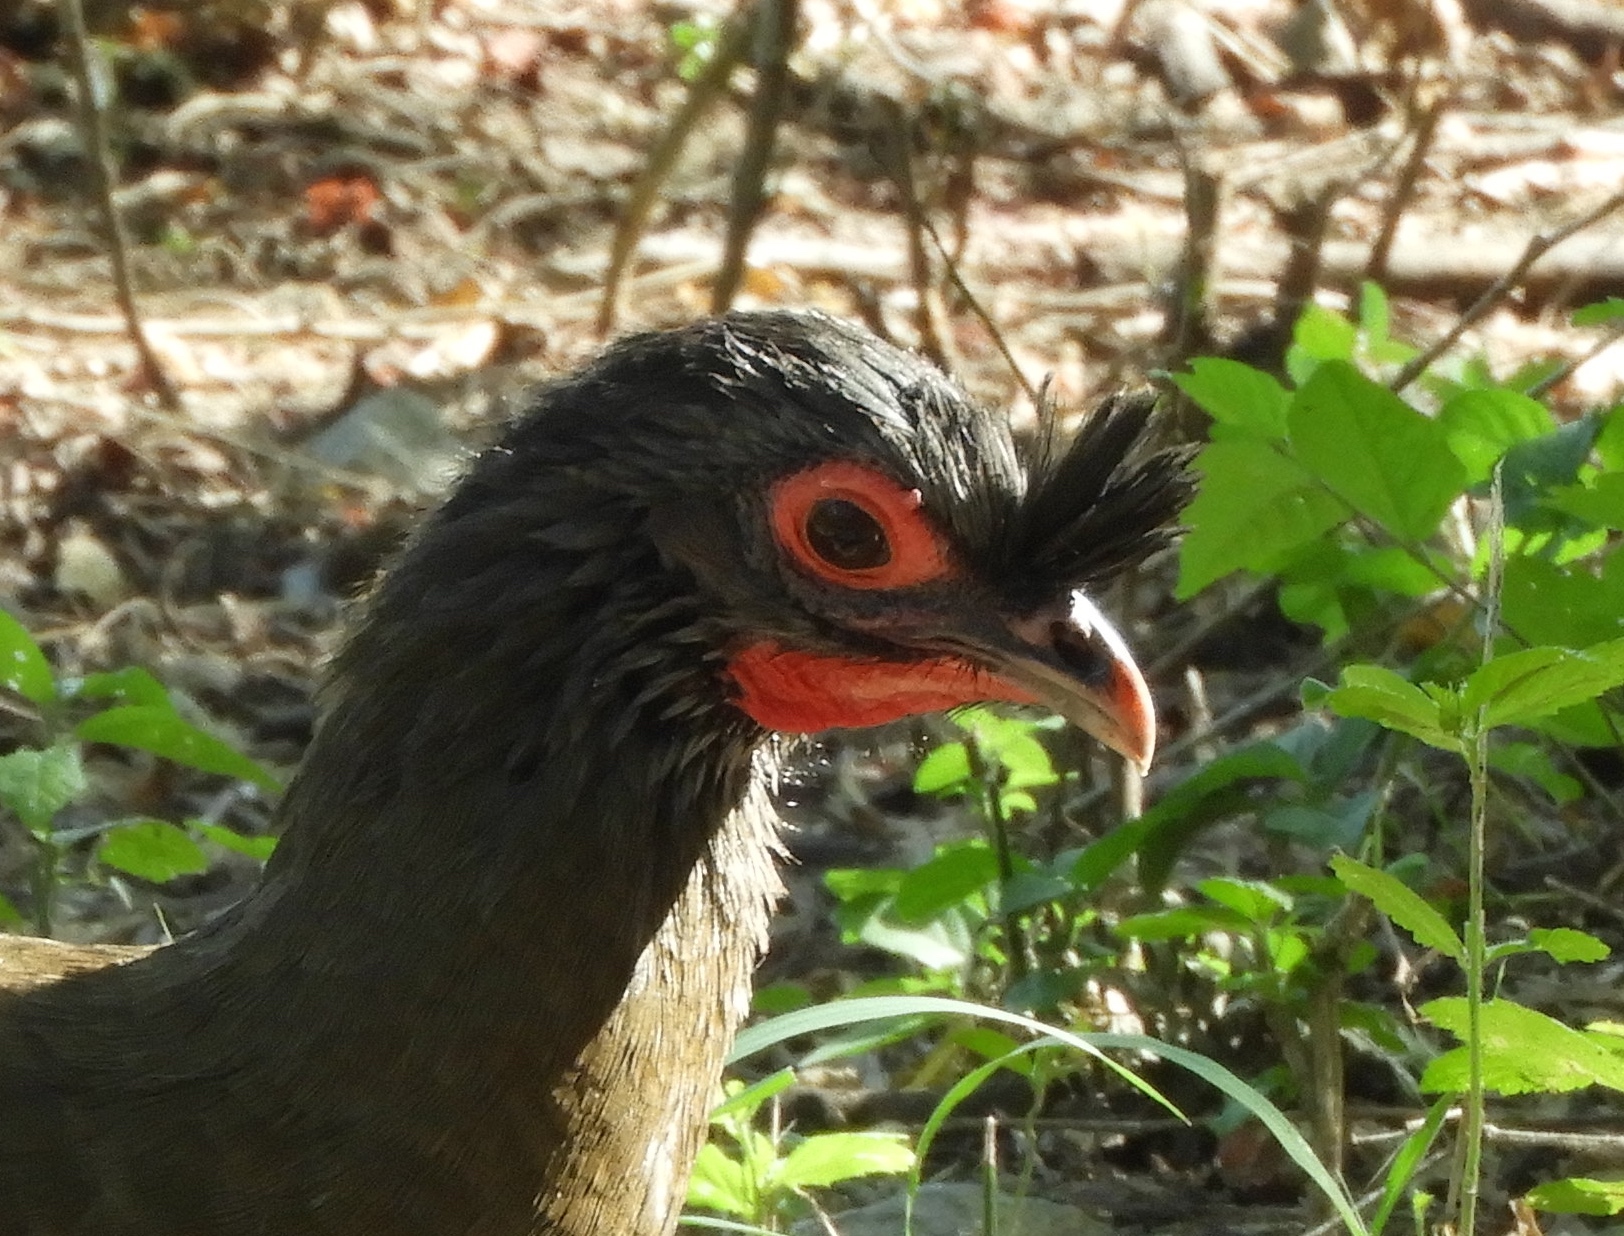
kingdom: Animalia
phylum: Chordata
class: Aves
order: Galliformes
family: Cracidae
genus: Ortalis
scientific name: Ortalis wagleri
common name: Rufous-bellied chachalaca
